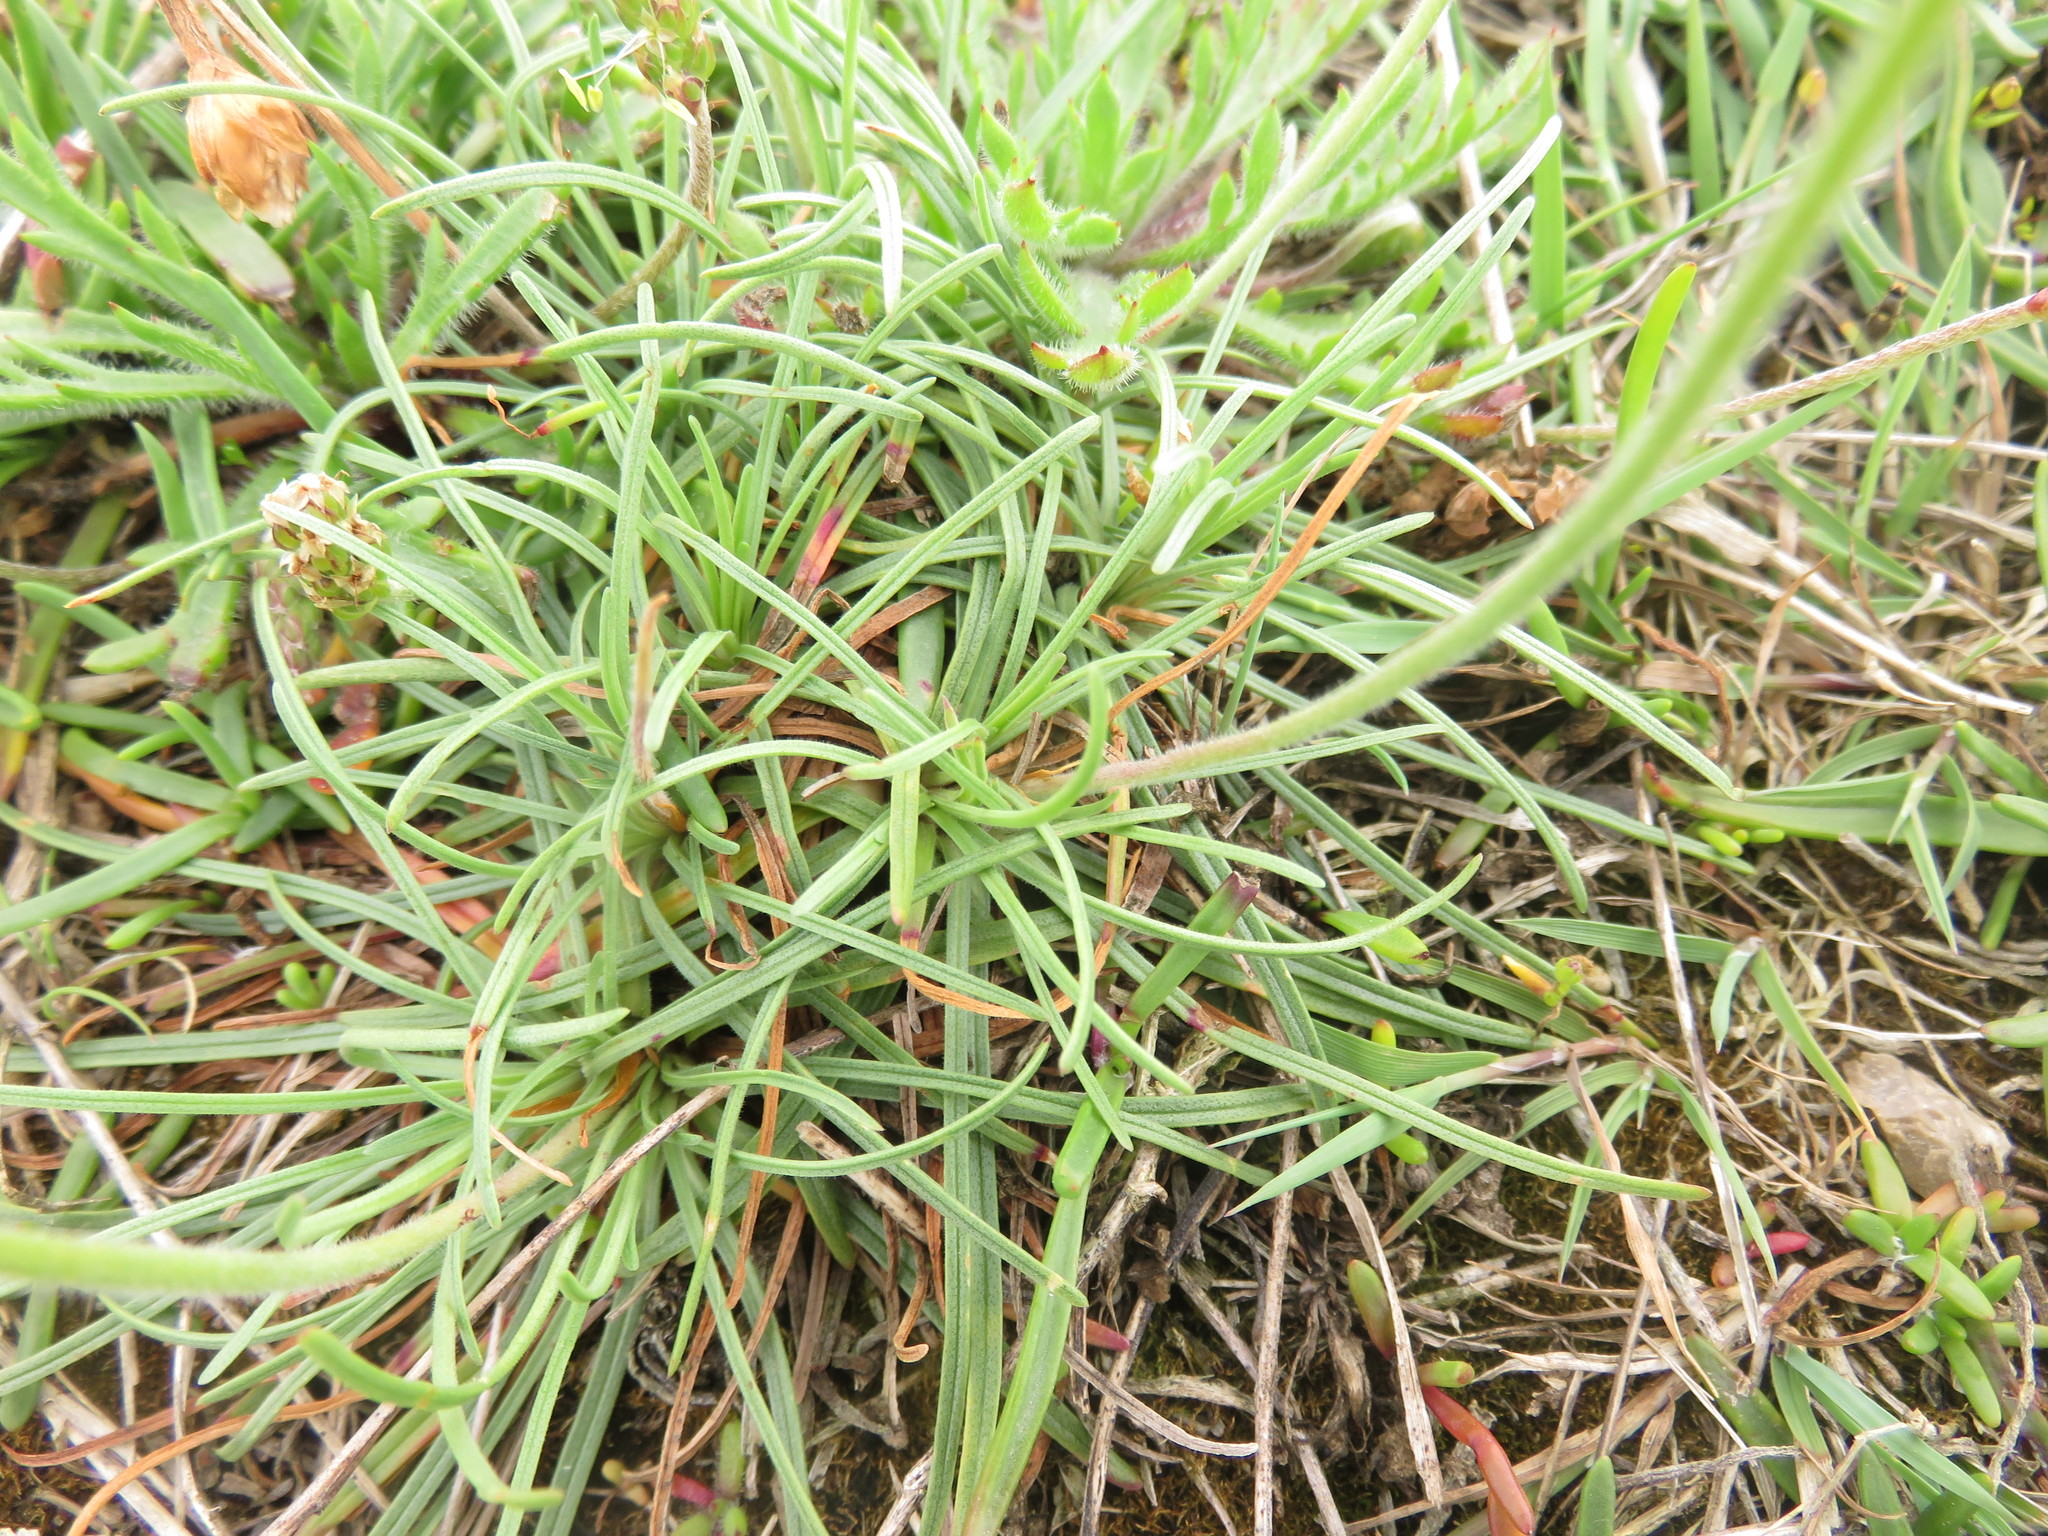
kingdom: Plantae
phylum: Tracheophyta
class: Magnoliopsida
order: Caryophyllales
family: Plumbaginaceae
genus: Armeria
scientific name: Armeria maritima
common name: Thrift
